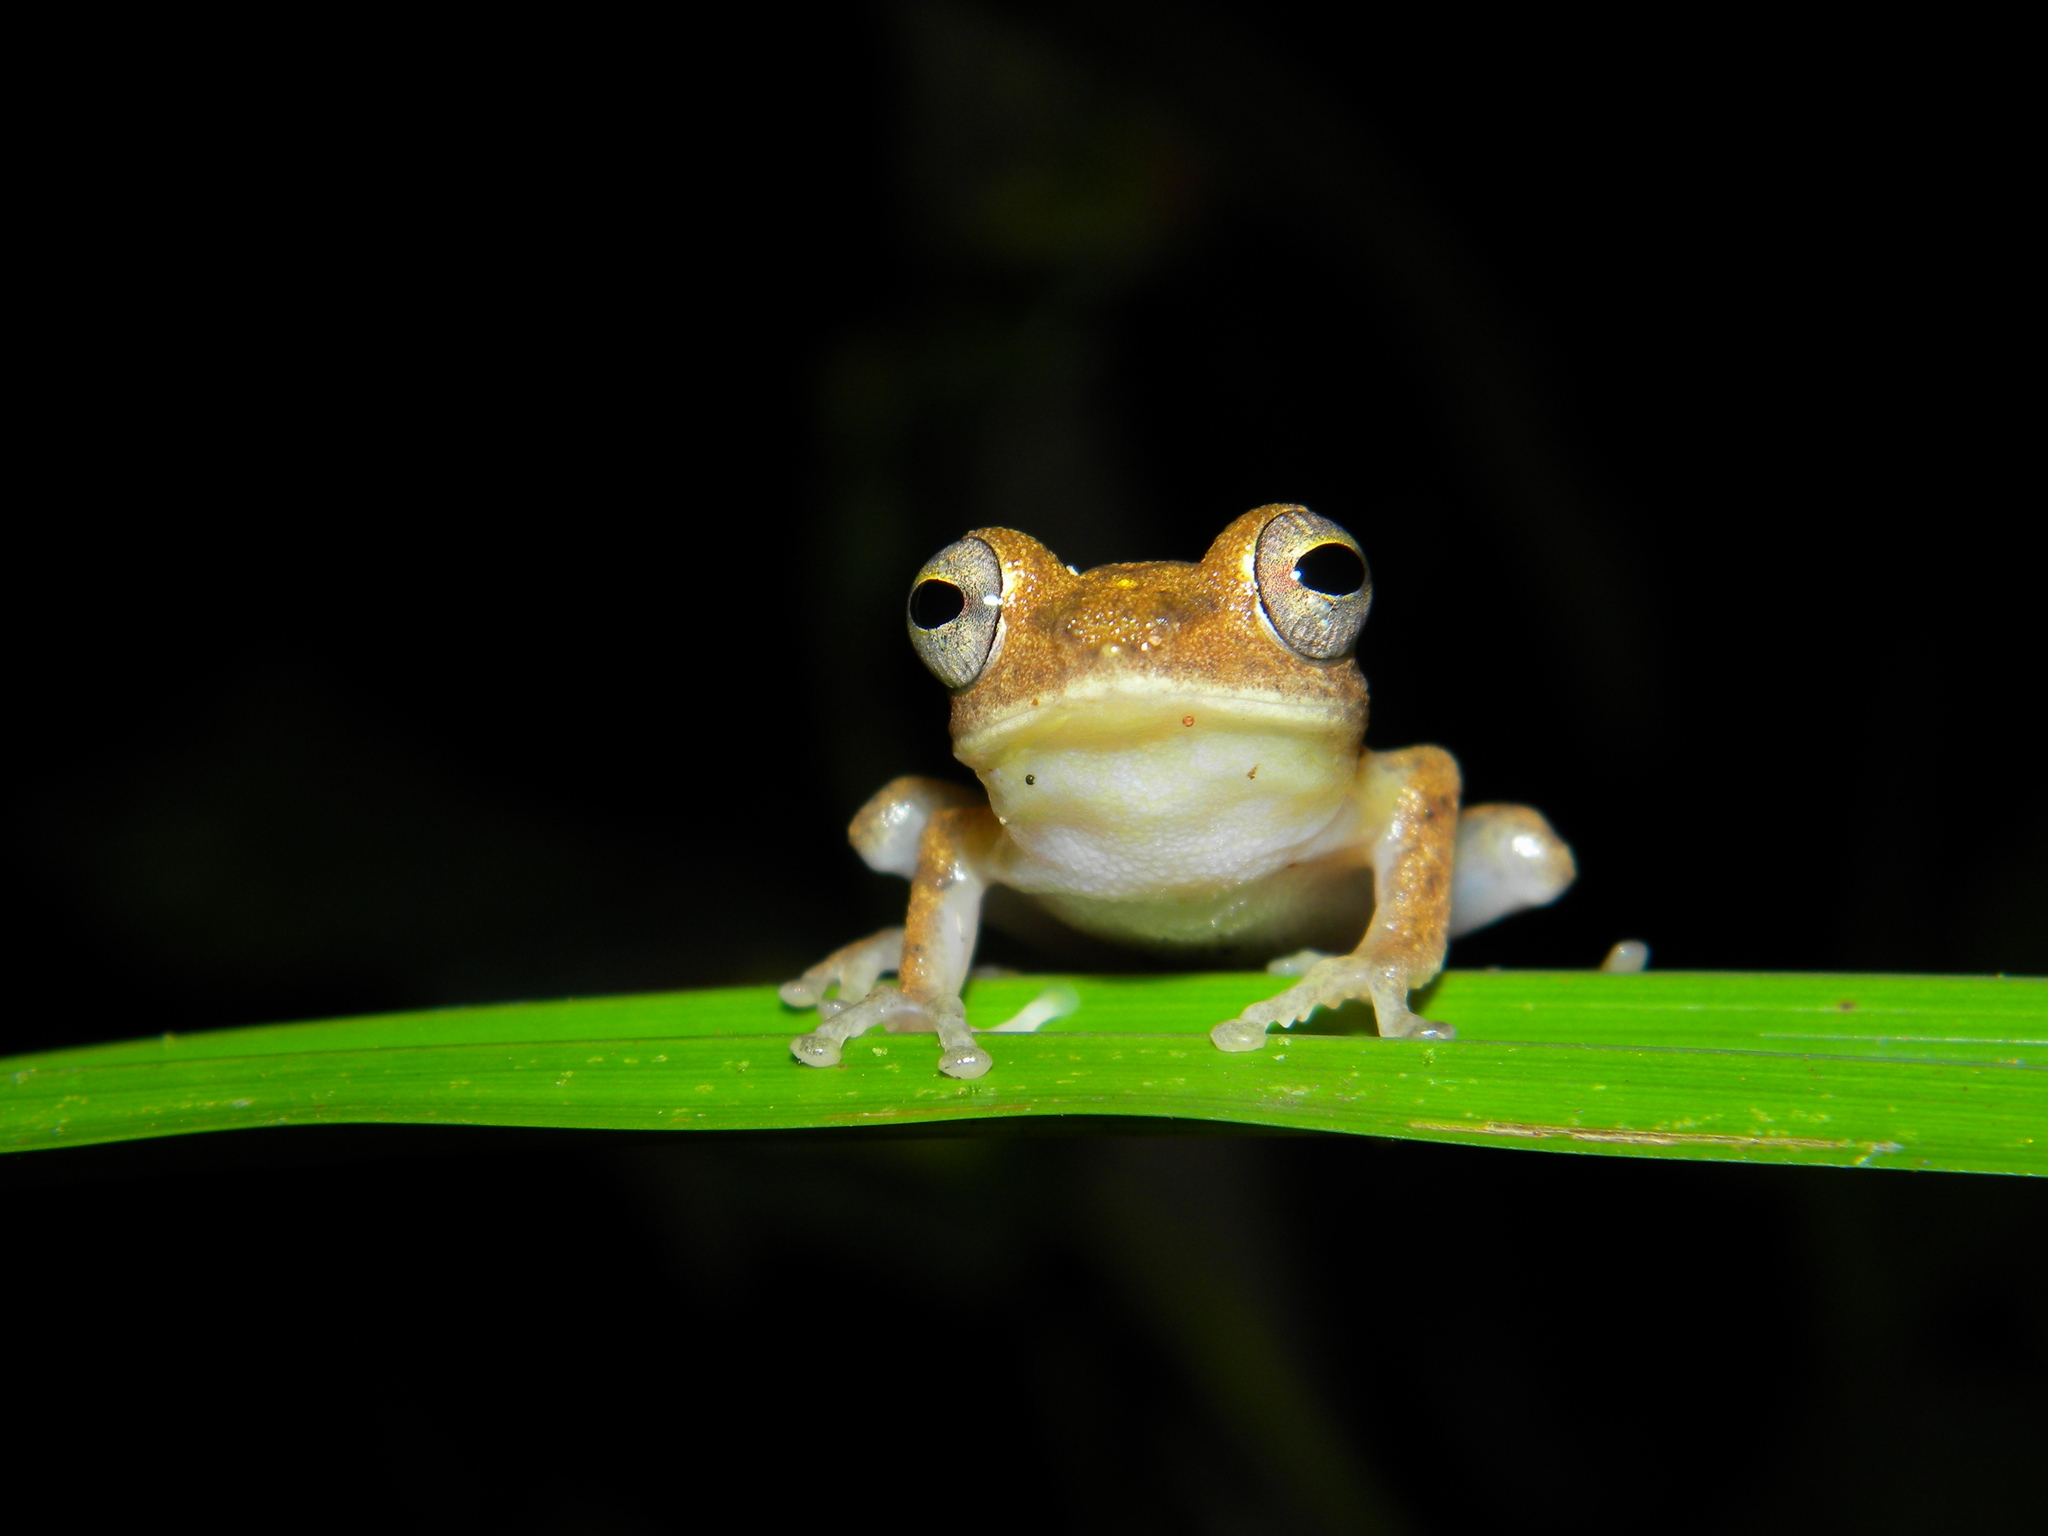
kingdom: Animalia
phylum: Chordata
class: Amphibia
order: Anura
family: Rhacophoridae
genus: Mercurana
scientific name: Mercurana myristicapalustris
